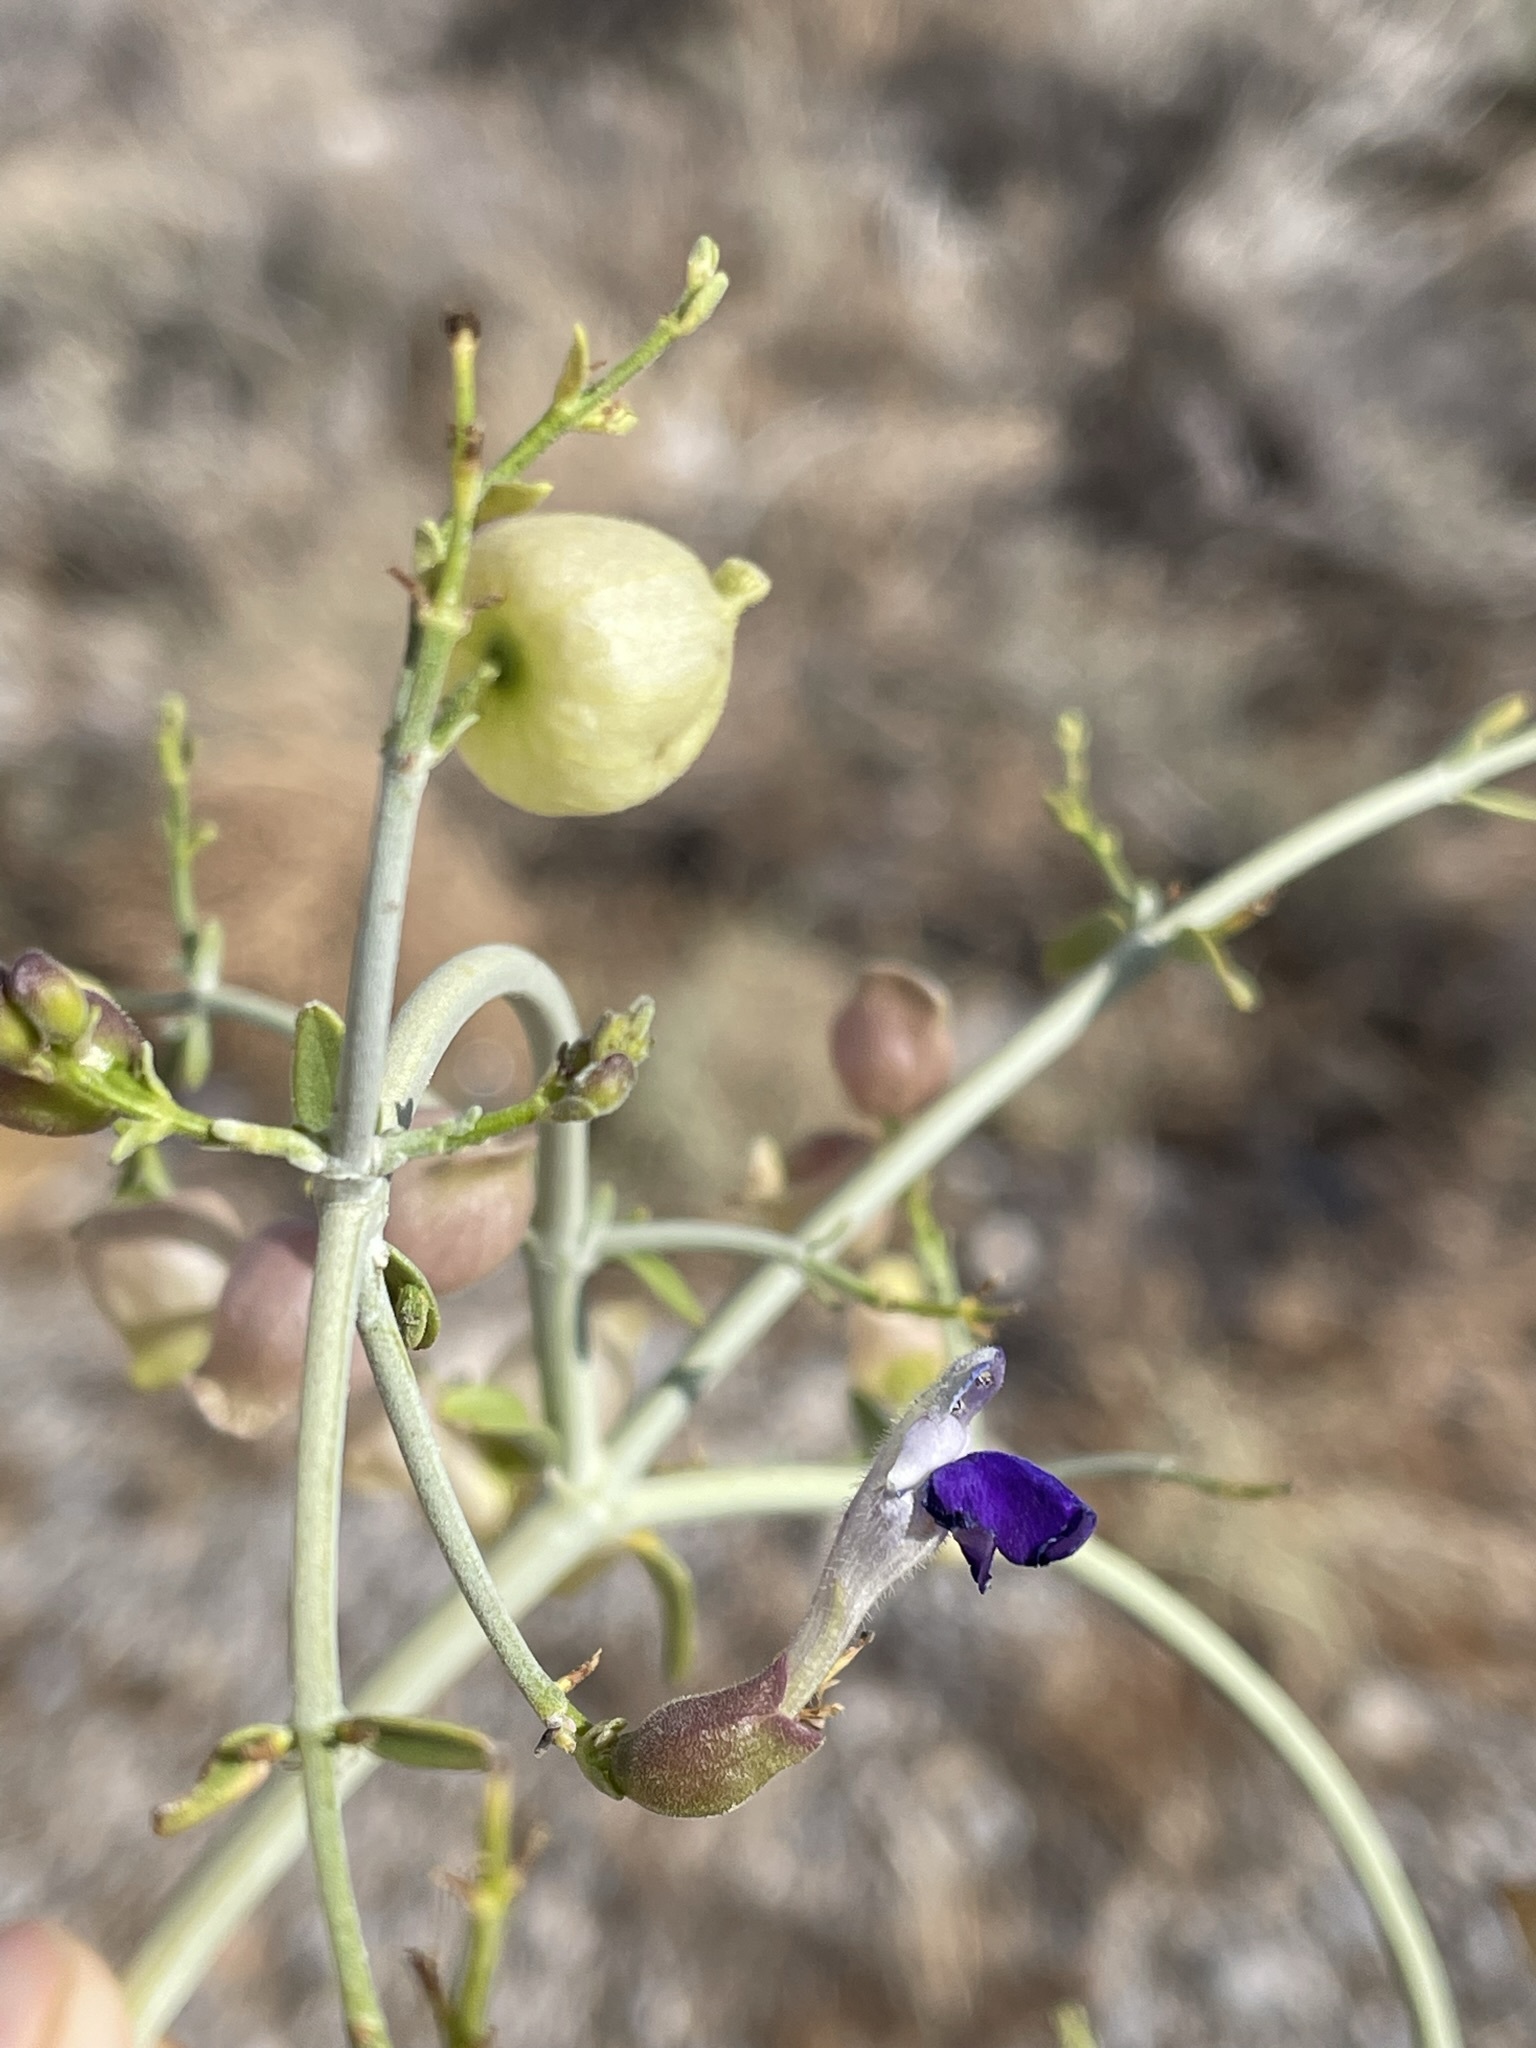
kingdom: Plantae
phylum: Tracheophyta
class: Magnoliopsida
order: Lamiales
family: Lamiaceae
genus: Scutellaria
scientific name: Scutellaria mexicana
